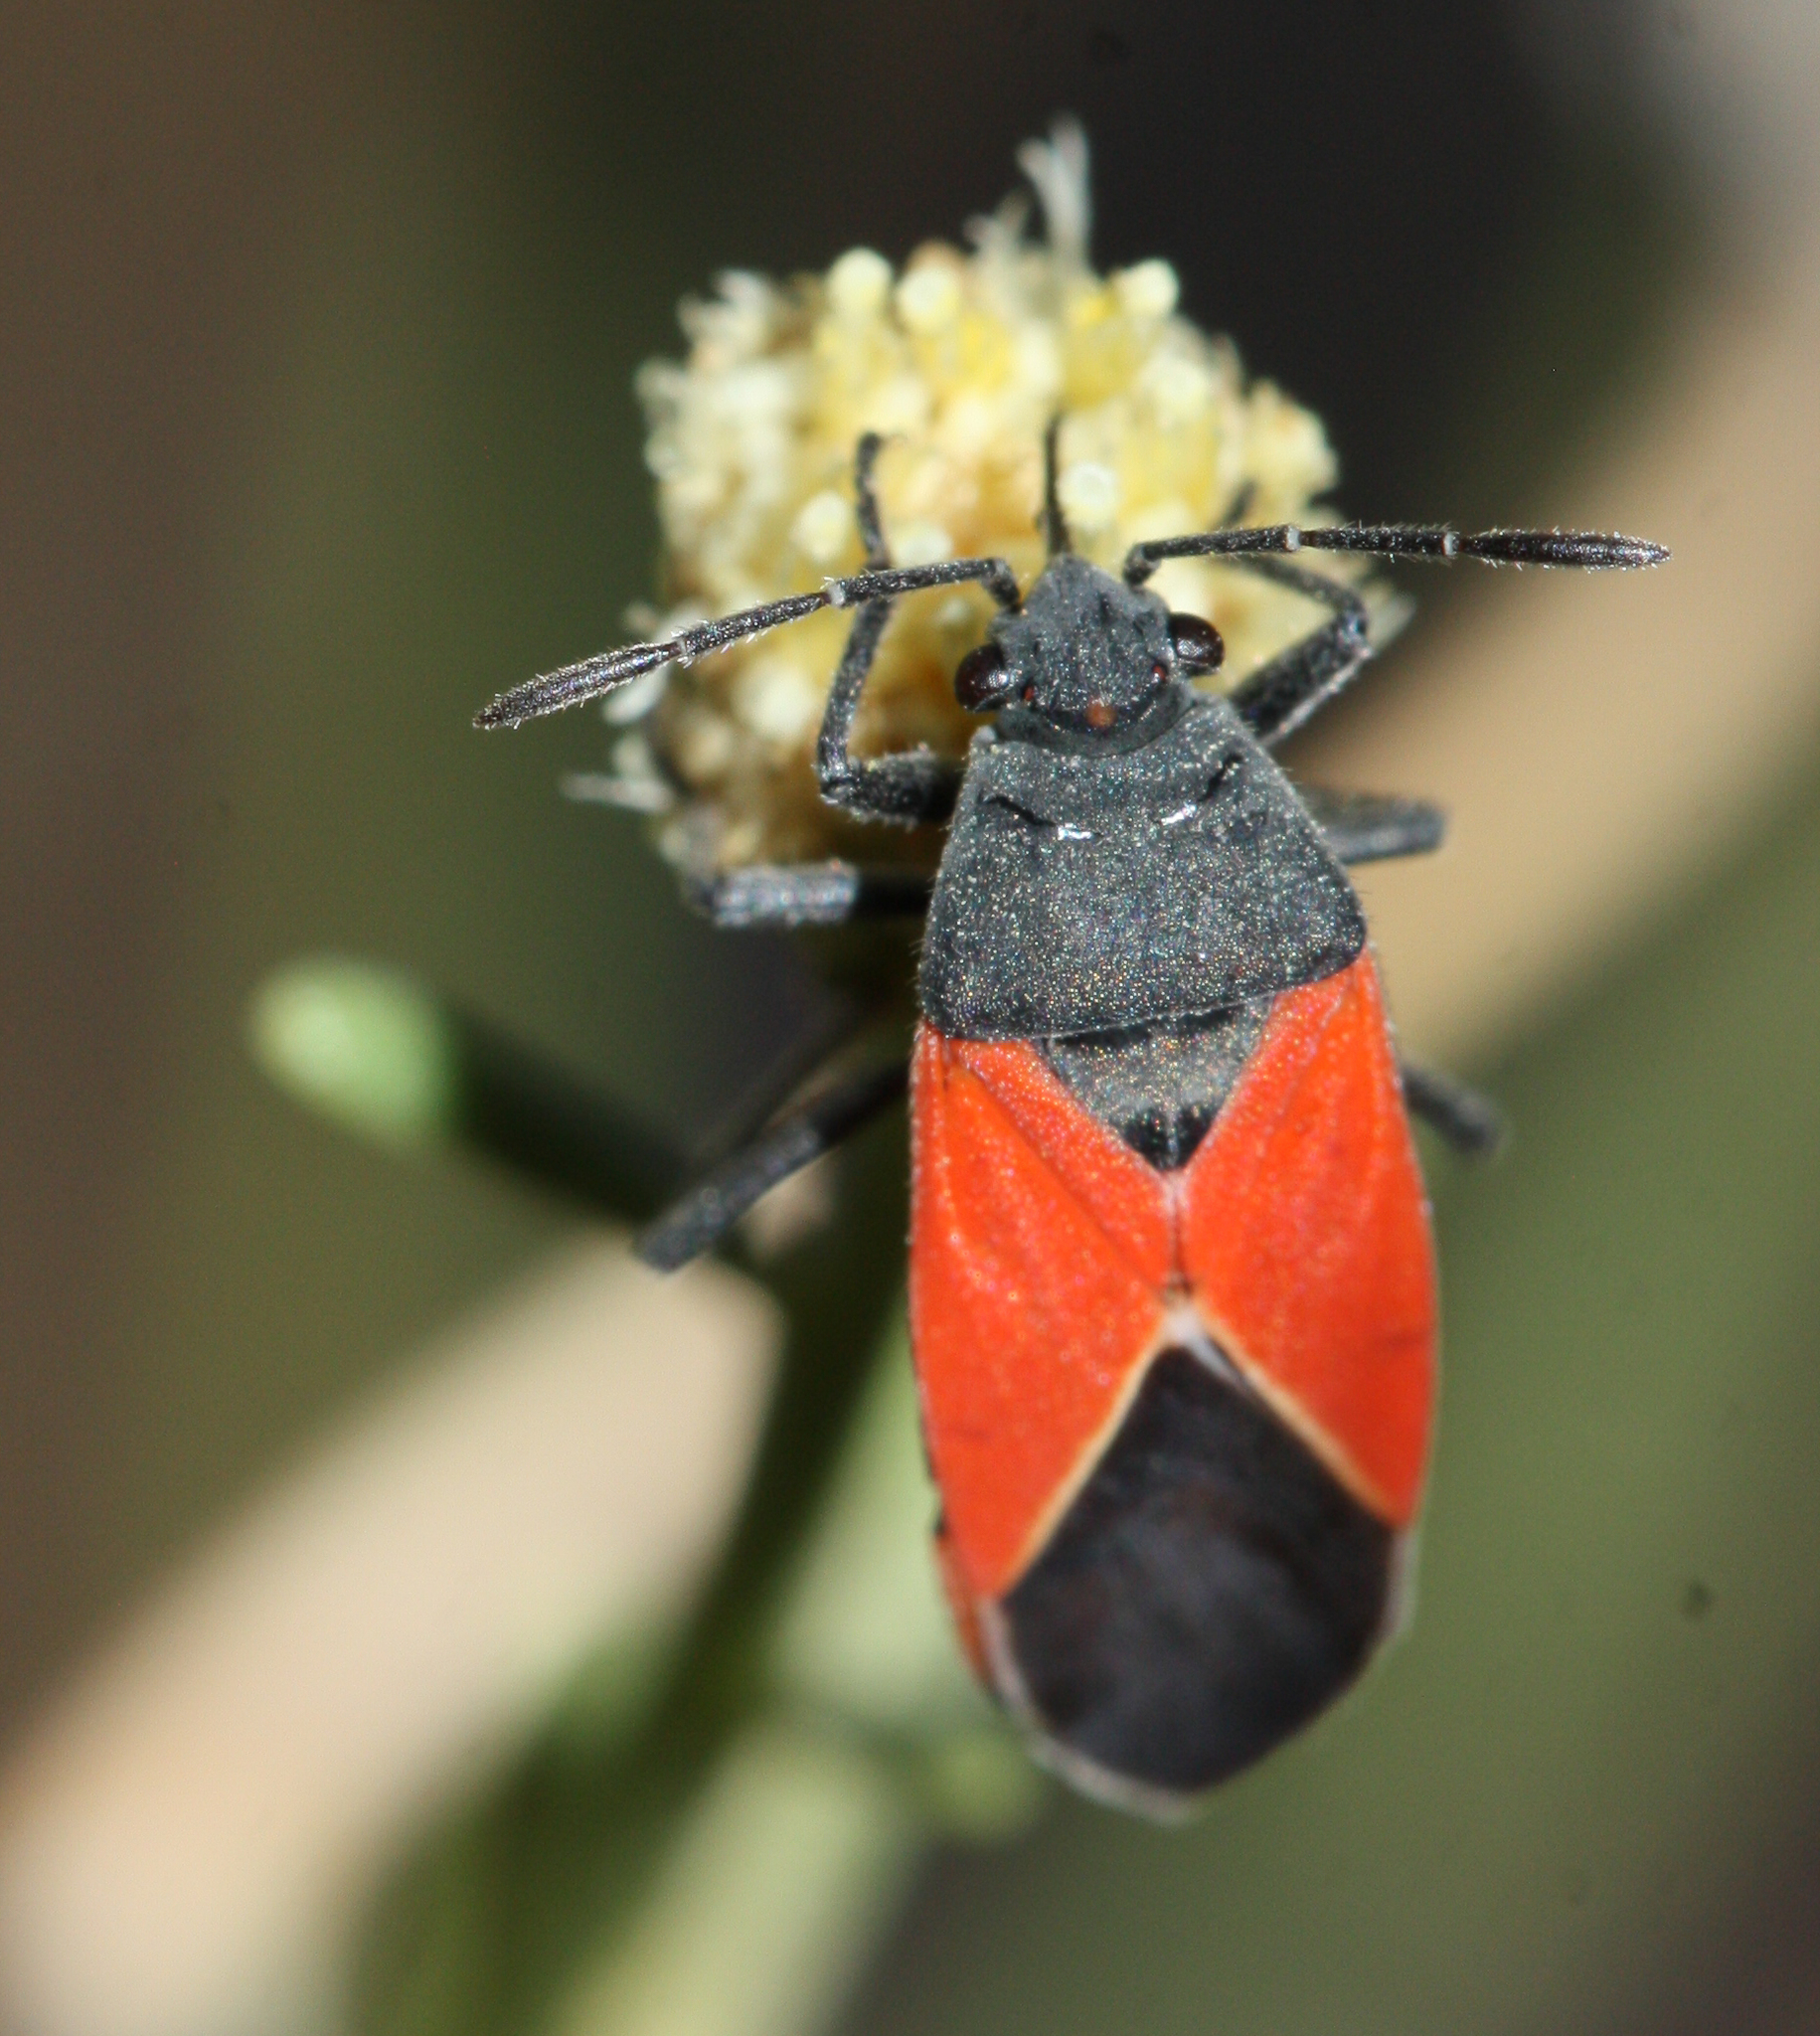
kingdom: Animalia
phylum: Arthropoda
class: Insecta
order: Hemiptera
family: Lygaeidae
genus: Melanopleurus
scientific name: Melanopleurus belfragei
